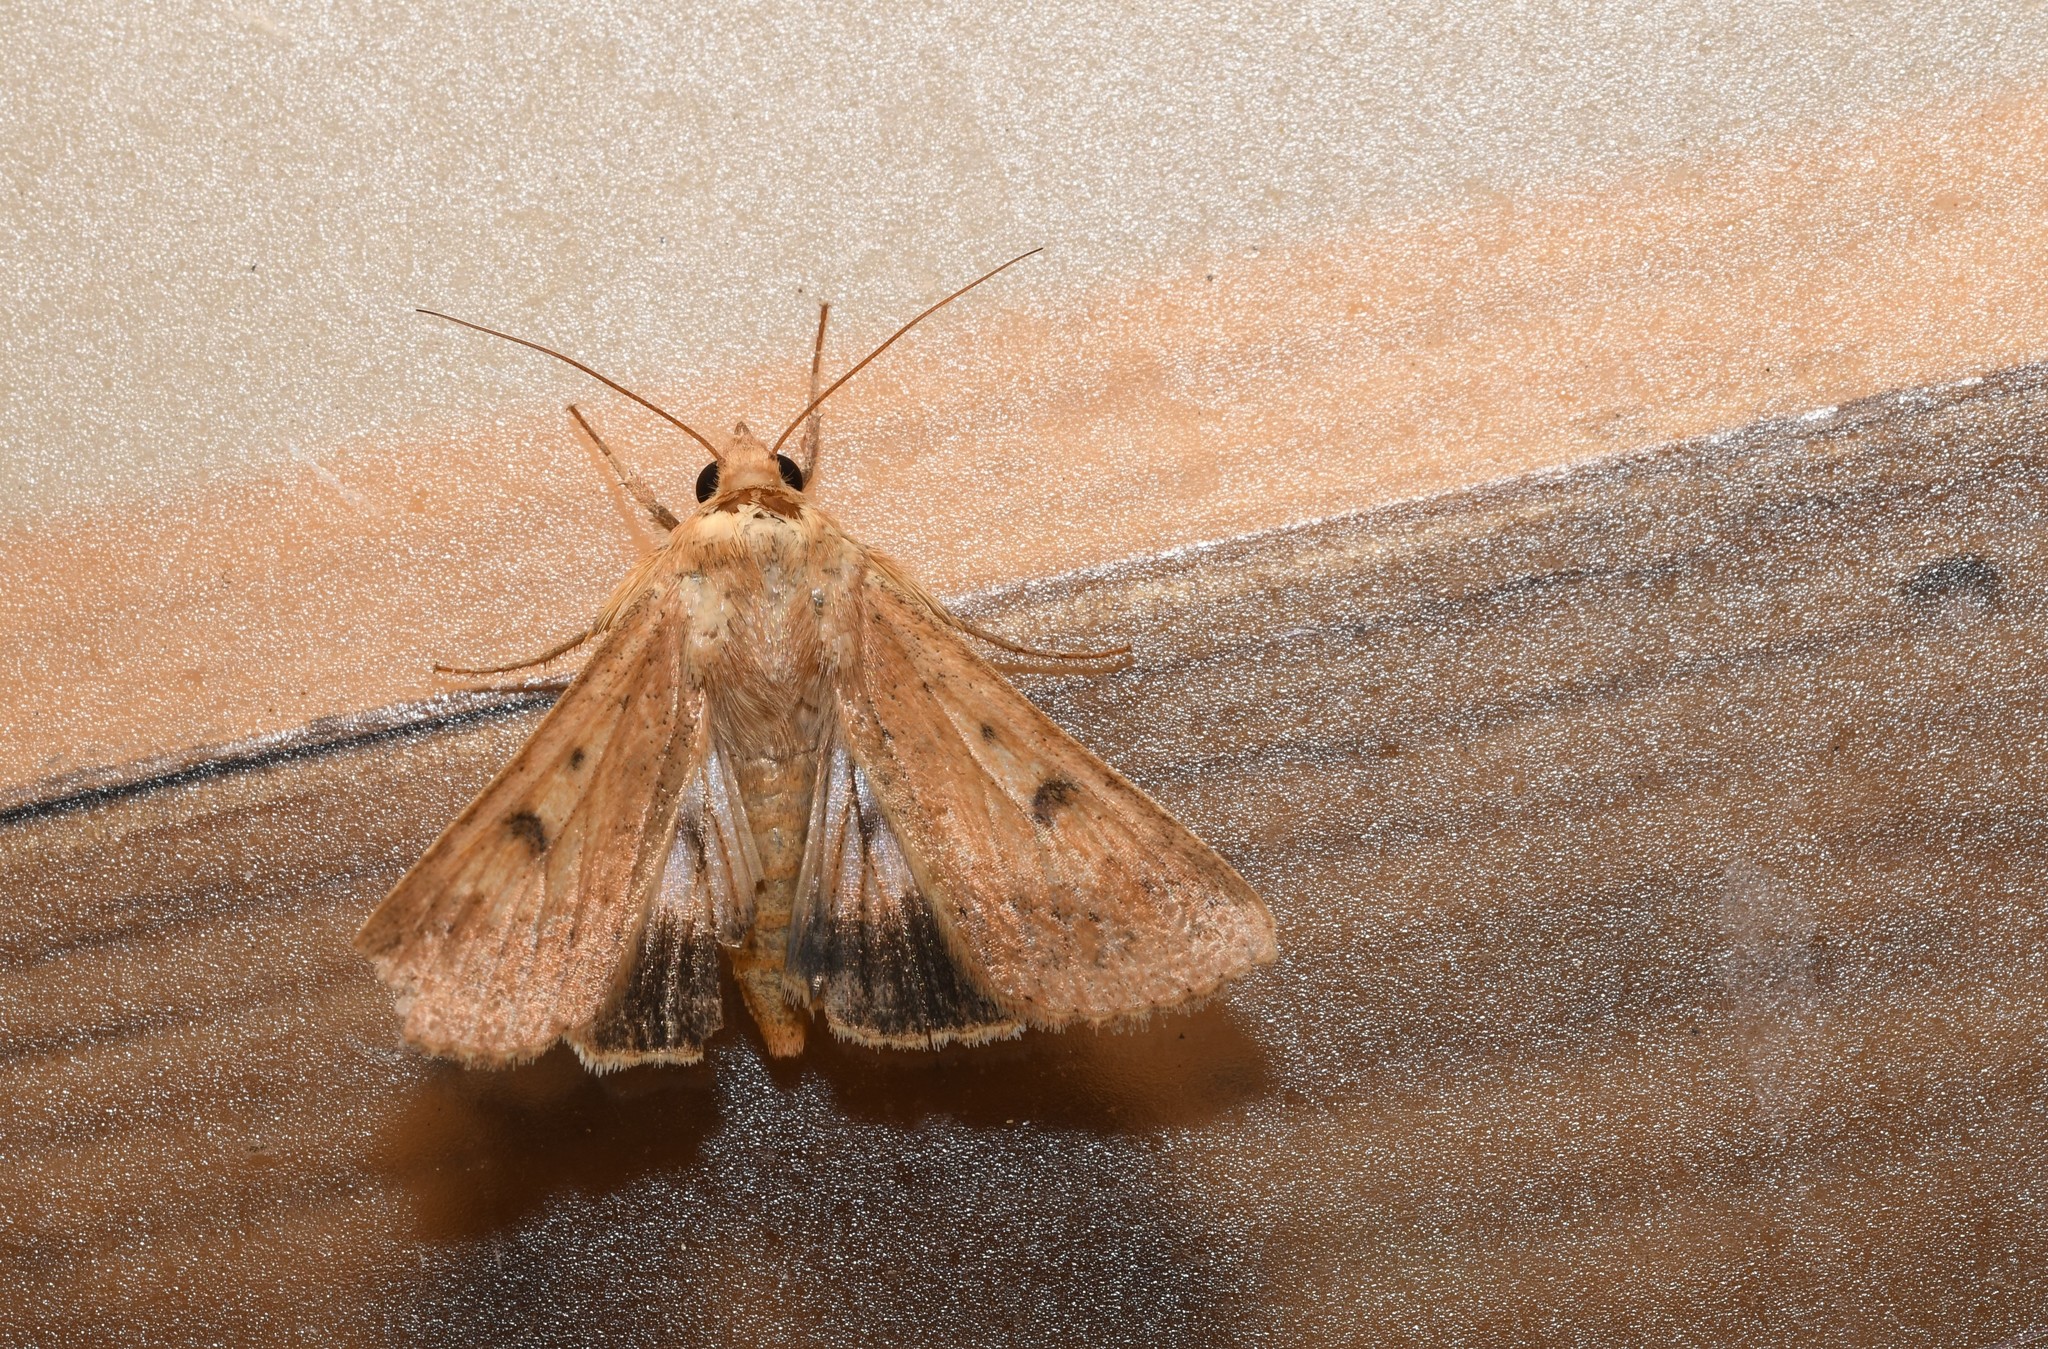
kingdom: Animalia
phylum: Arthropoda
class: Insecta
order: Lepidoptera
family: Noctuidae
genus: Helicoverpa
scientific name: Helicoverpa armigera
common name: Cotton bollworm
